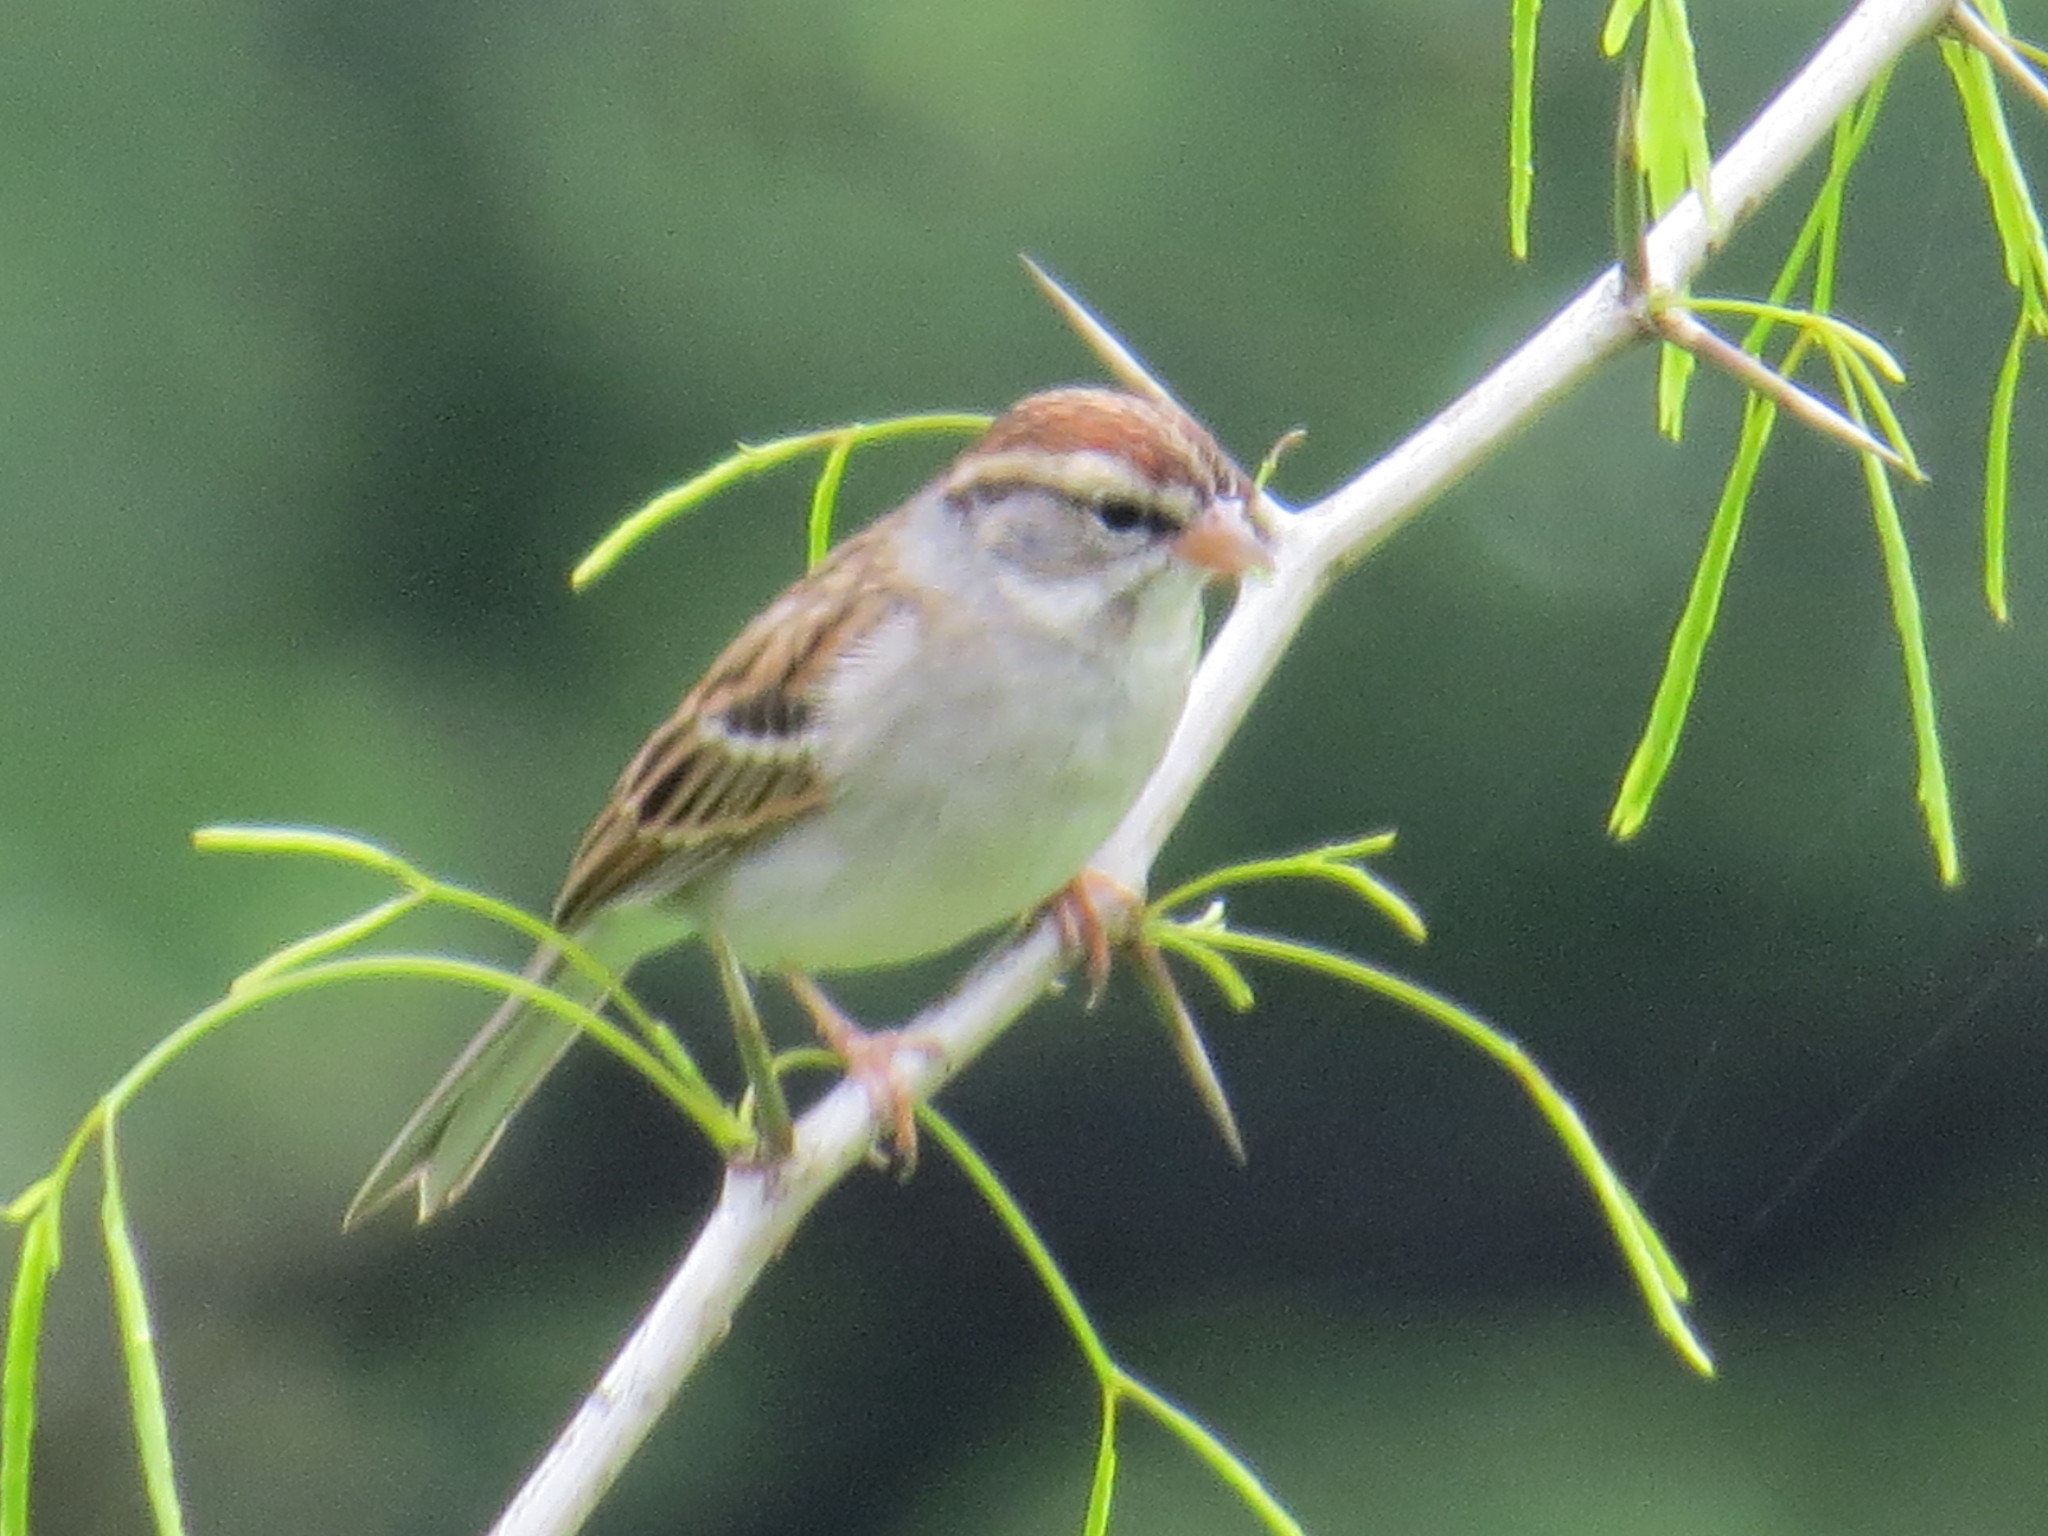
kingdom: Animalia
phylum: Chordata
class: Aves
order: Passeriformes
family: Passerellidae
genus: Spizella
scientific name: Spizella passerina
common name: Chipping sparrow
